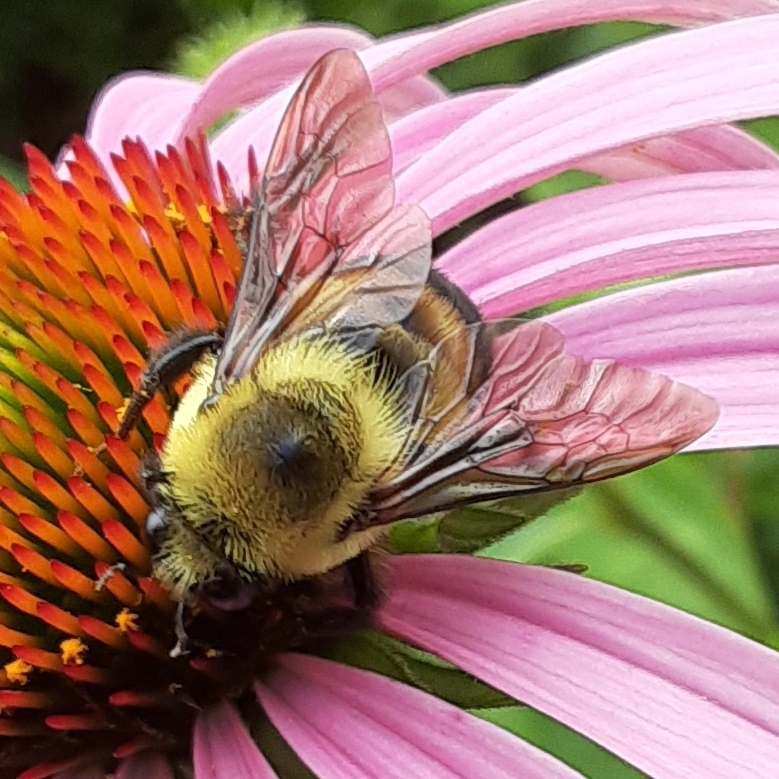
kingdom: Animalia
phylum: Arthropoda
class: Insecta
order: Hymenoptera
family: Apidae
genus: Bombus
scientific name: Bombus griseocollis
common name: Brown-belted bumble bee
